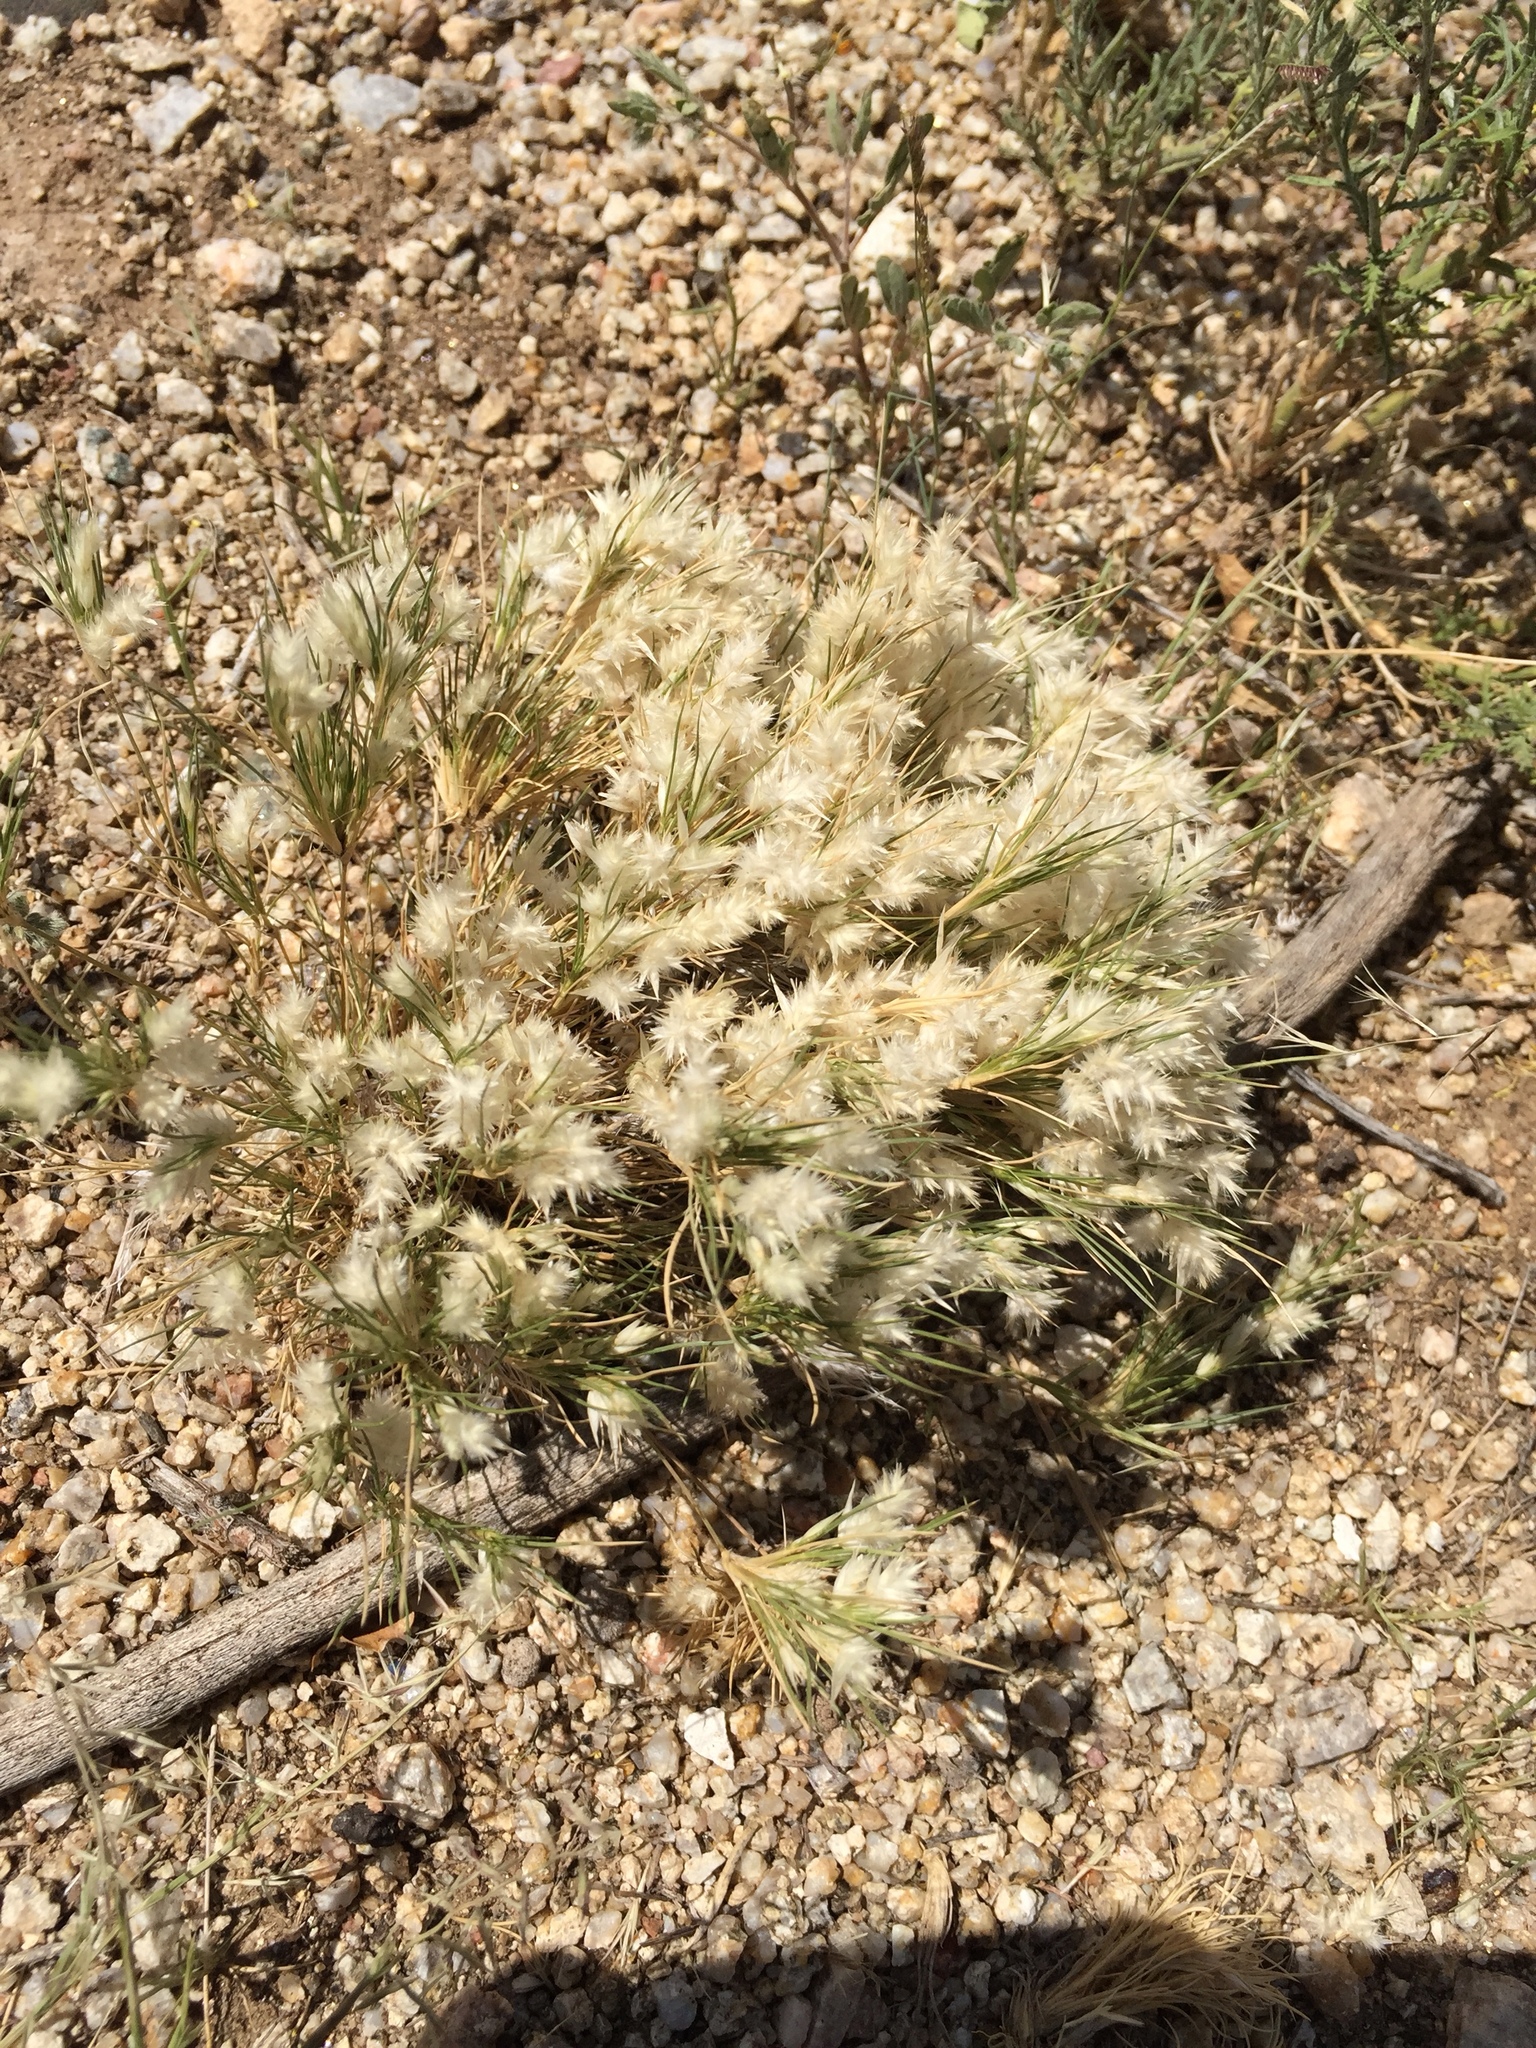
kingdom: Plantae
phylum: Tracheophyta
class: Liliopsida
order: Poales
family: Poaceae
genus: Dasyochloa
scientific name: Dasyochloa pulchella
